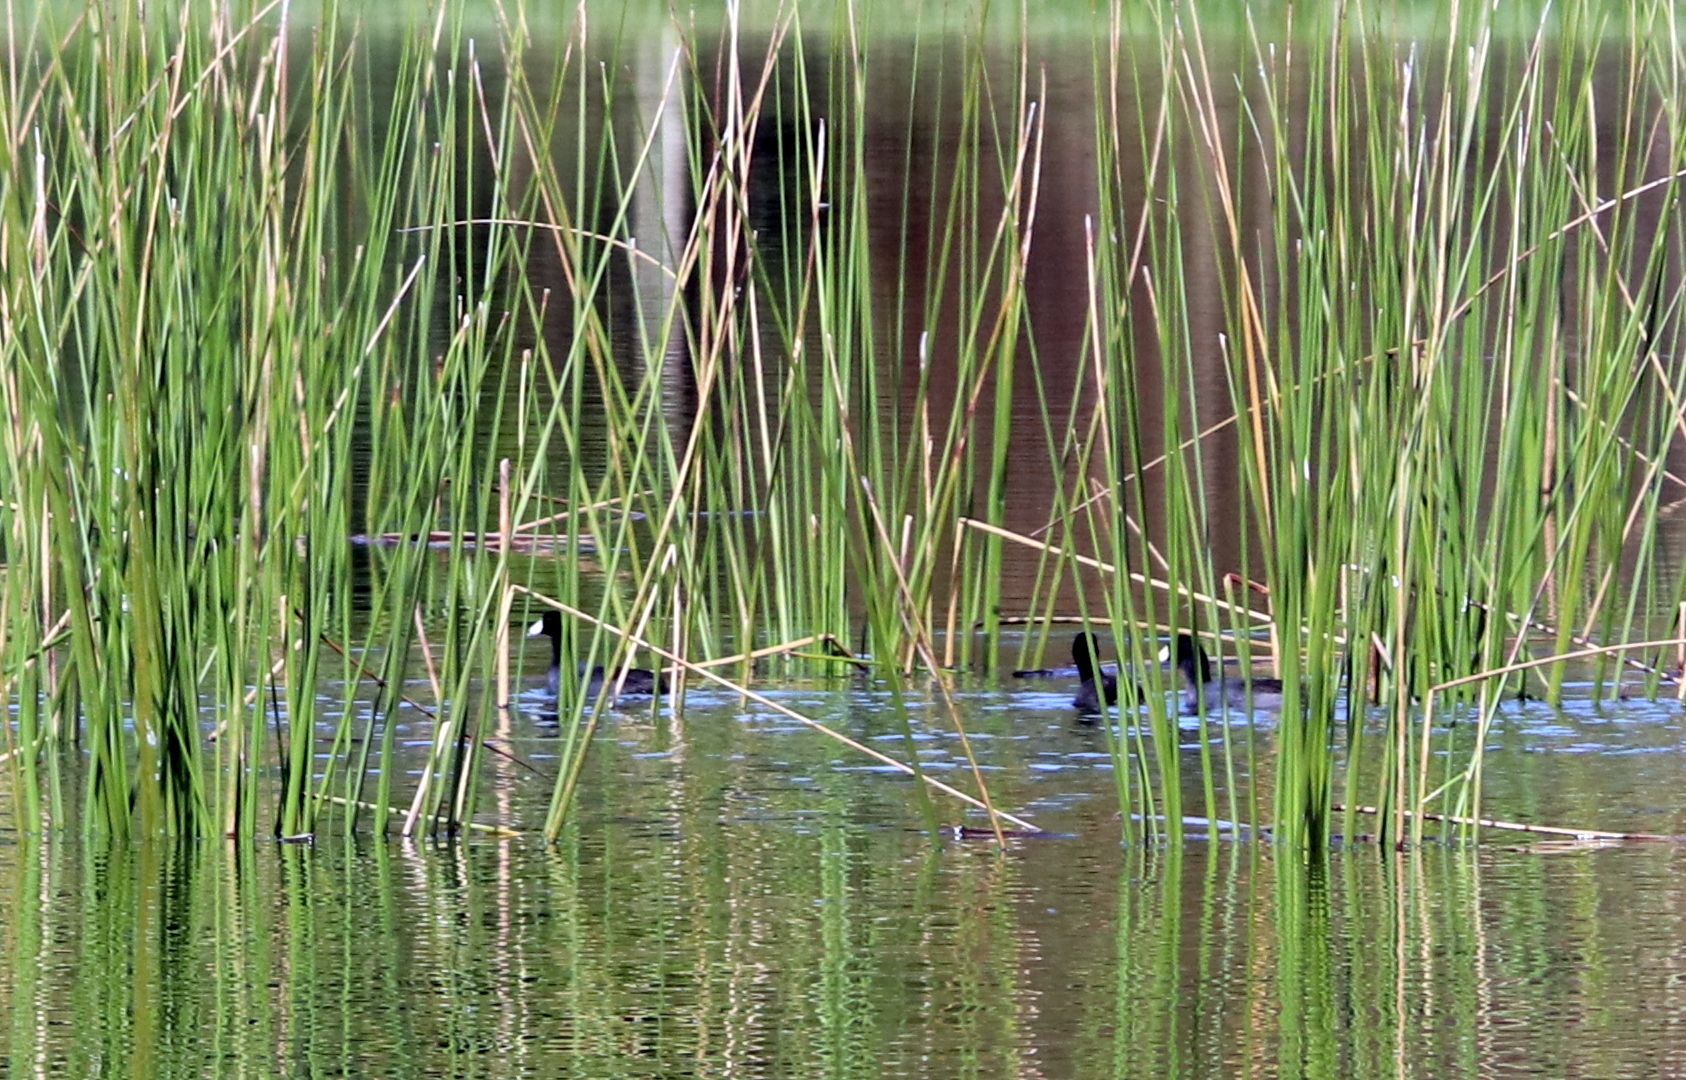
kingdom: Animalia
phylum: Chordata
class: Aves
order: Gruiformes
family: Rallidae
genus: Fulica
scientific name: Fulica americana
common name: American coot
